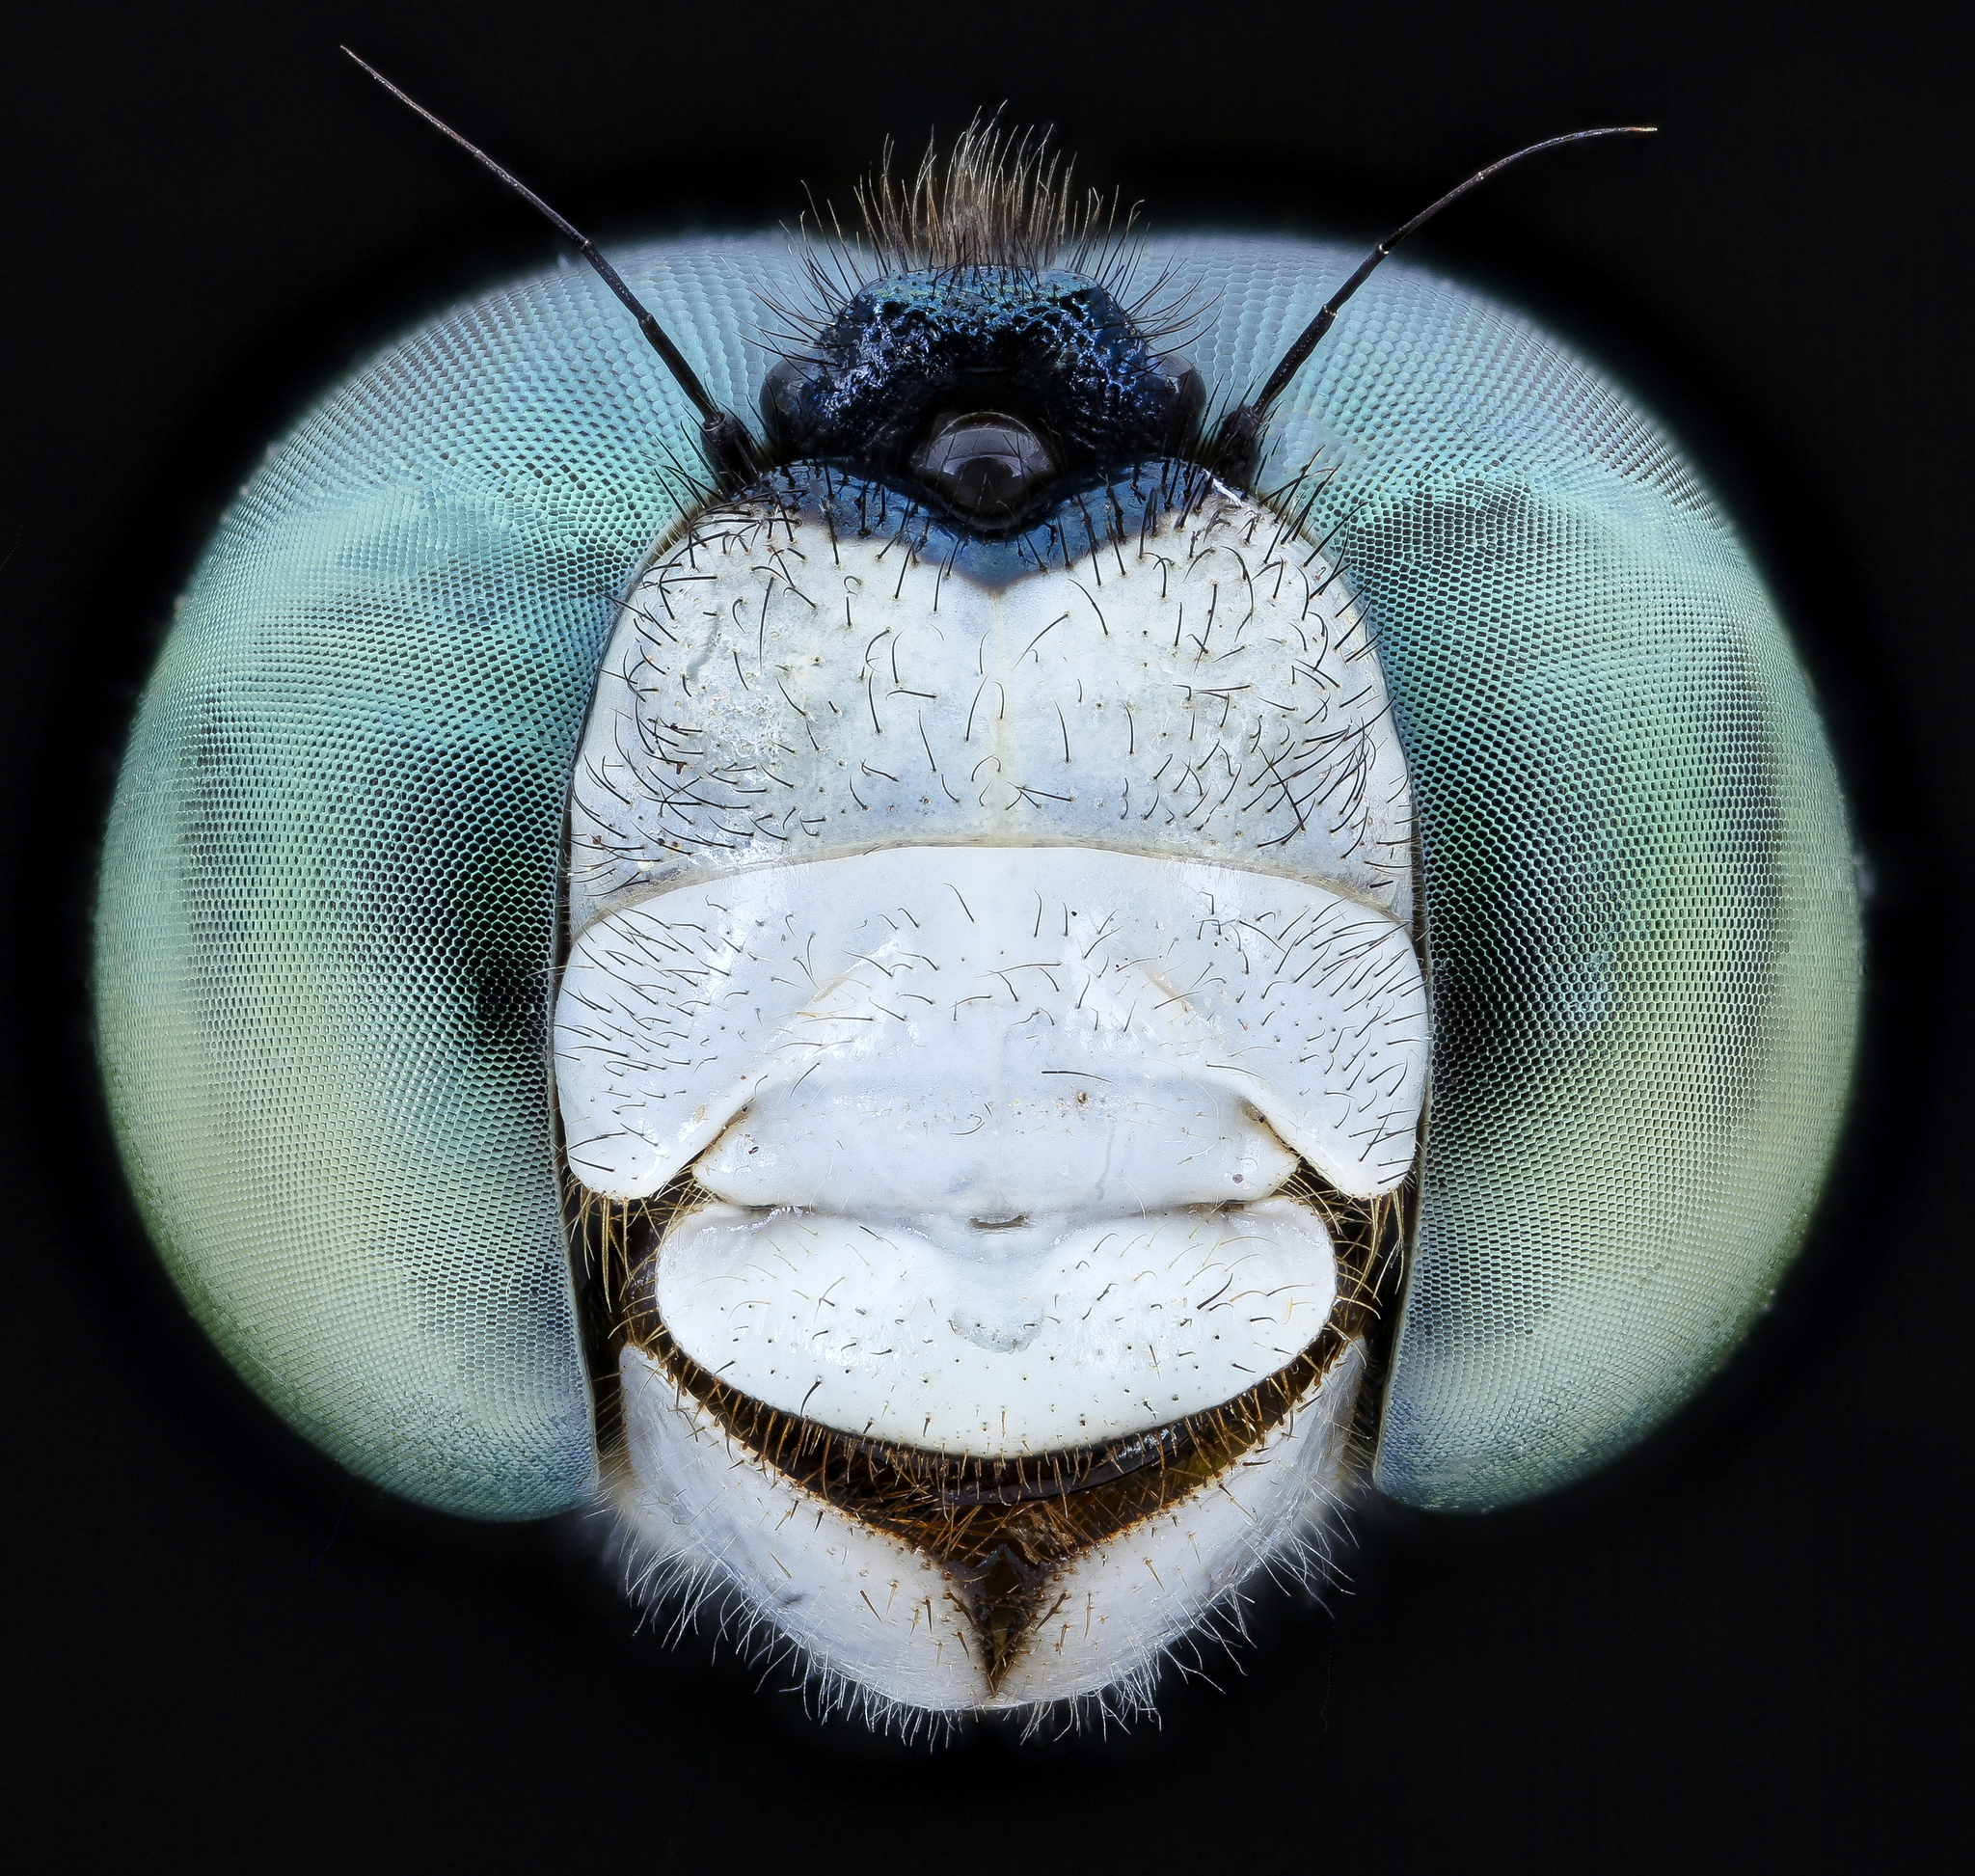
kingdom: Animalia
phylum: Arthropoda
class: Insecta
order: Odonata
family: Libellulidae
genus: Pachydiplax
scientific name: Pachydiplax longipennis
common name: Blue dasher
